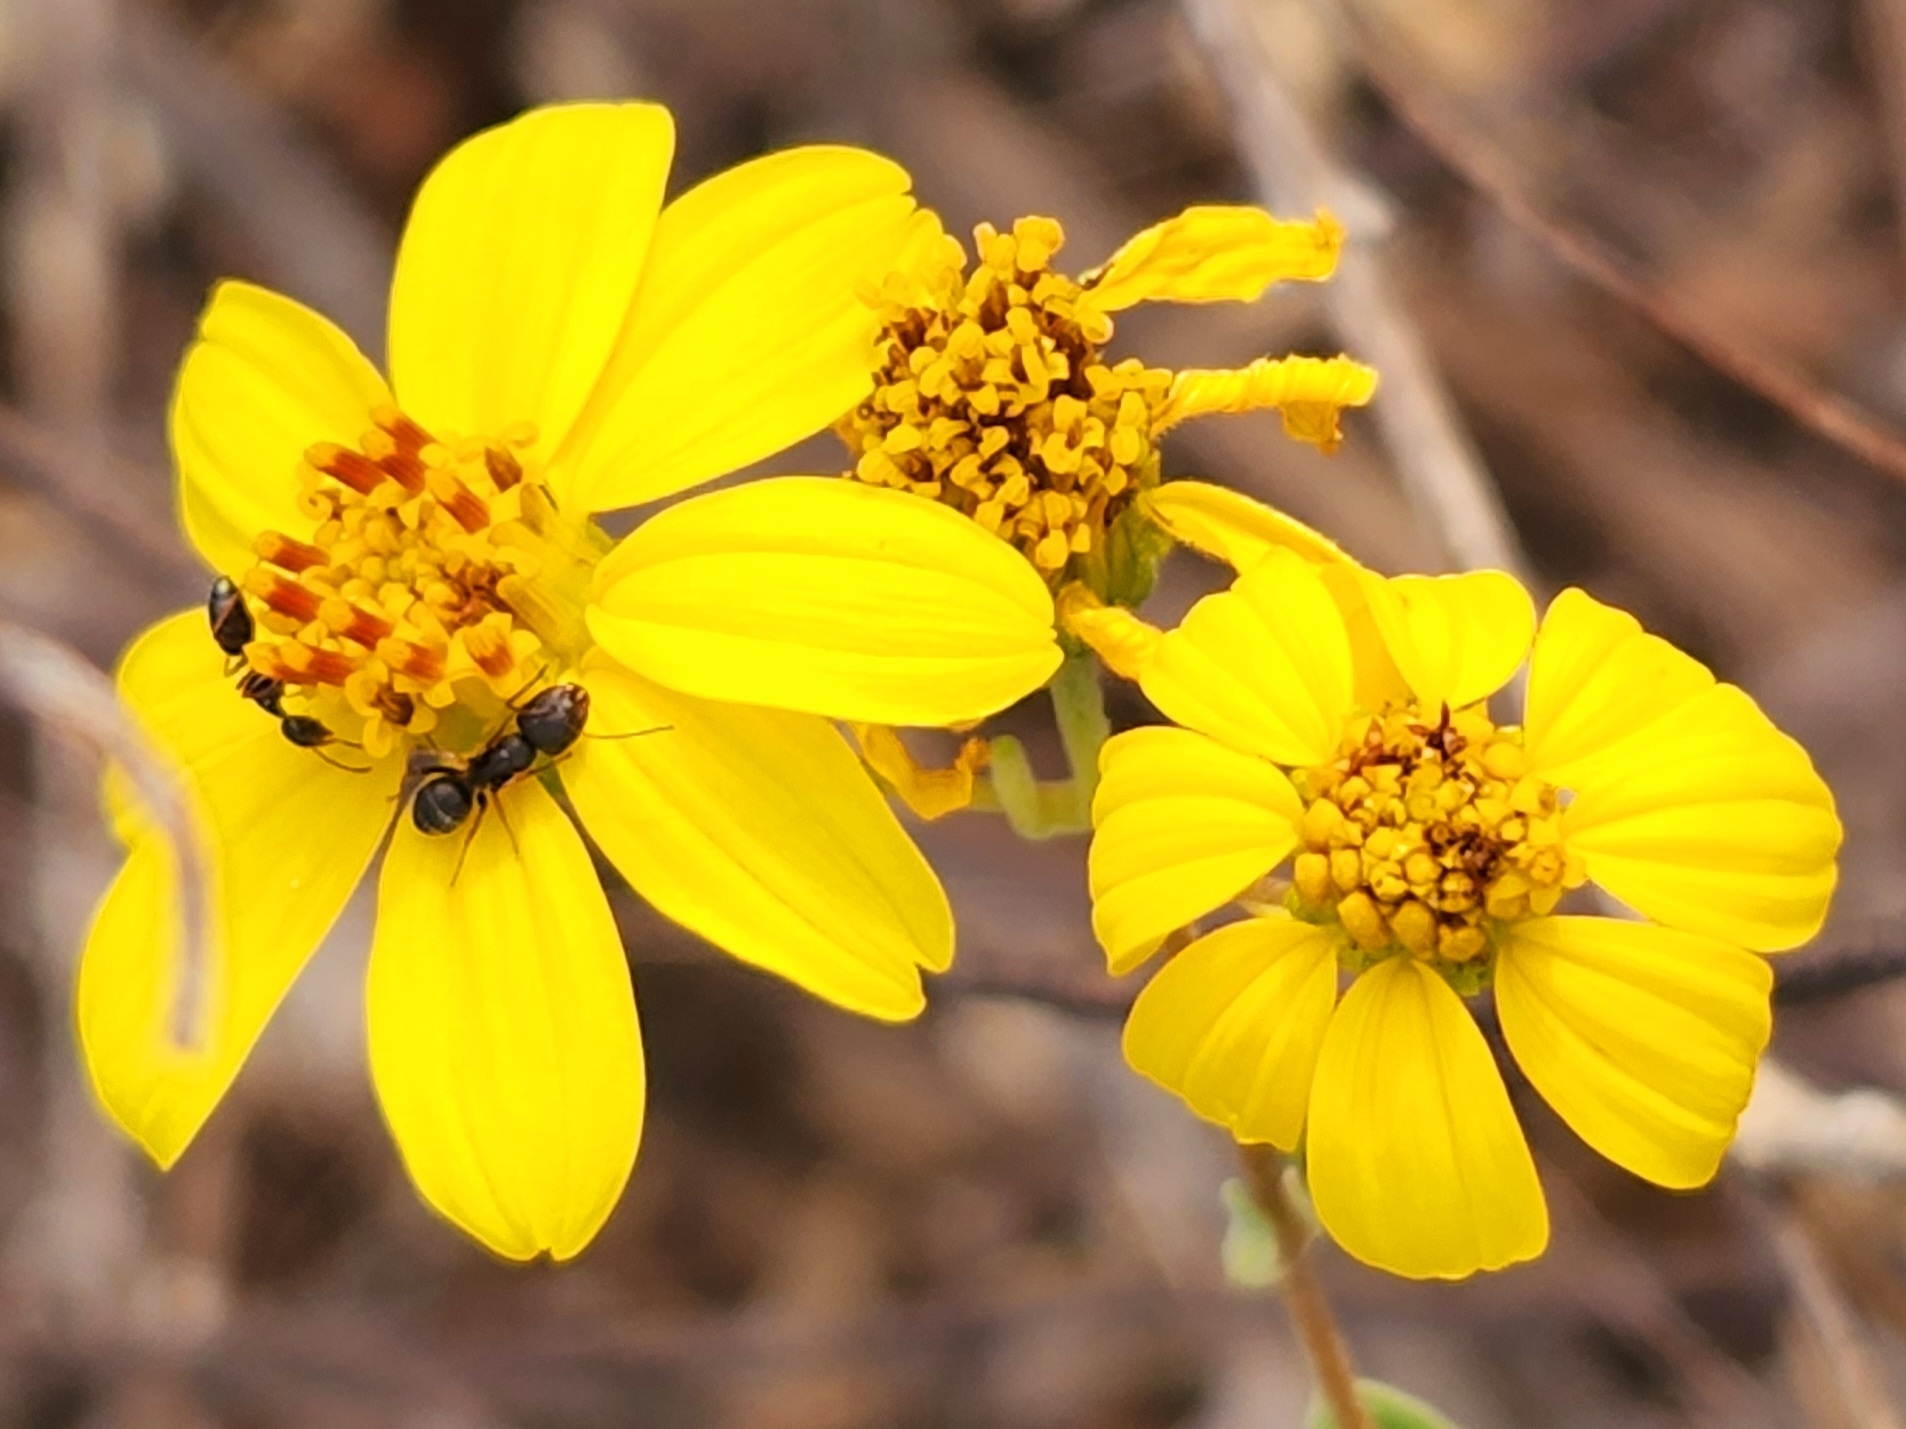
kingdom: Plantae
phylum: Tracheophyta
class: Magnoliopsida
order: Asterales
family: Asteraceae
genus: Bahiopsis
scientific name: Bahiopsis chenopodina
